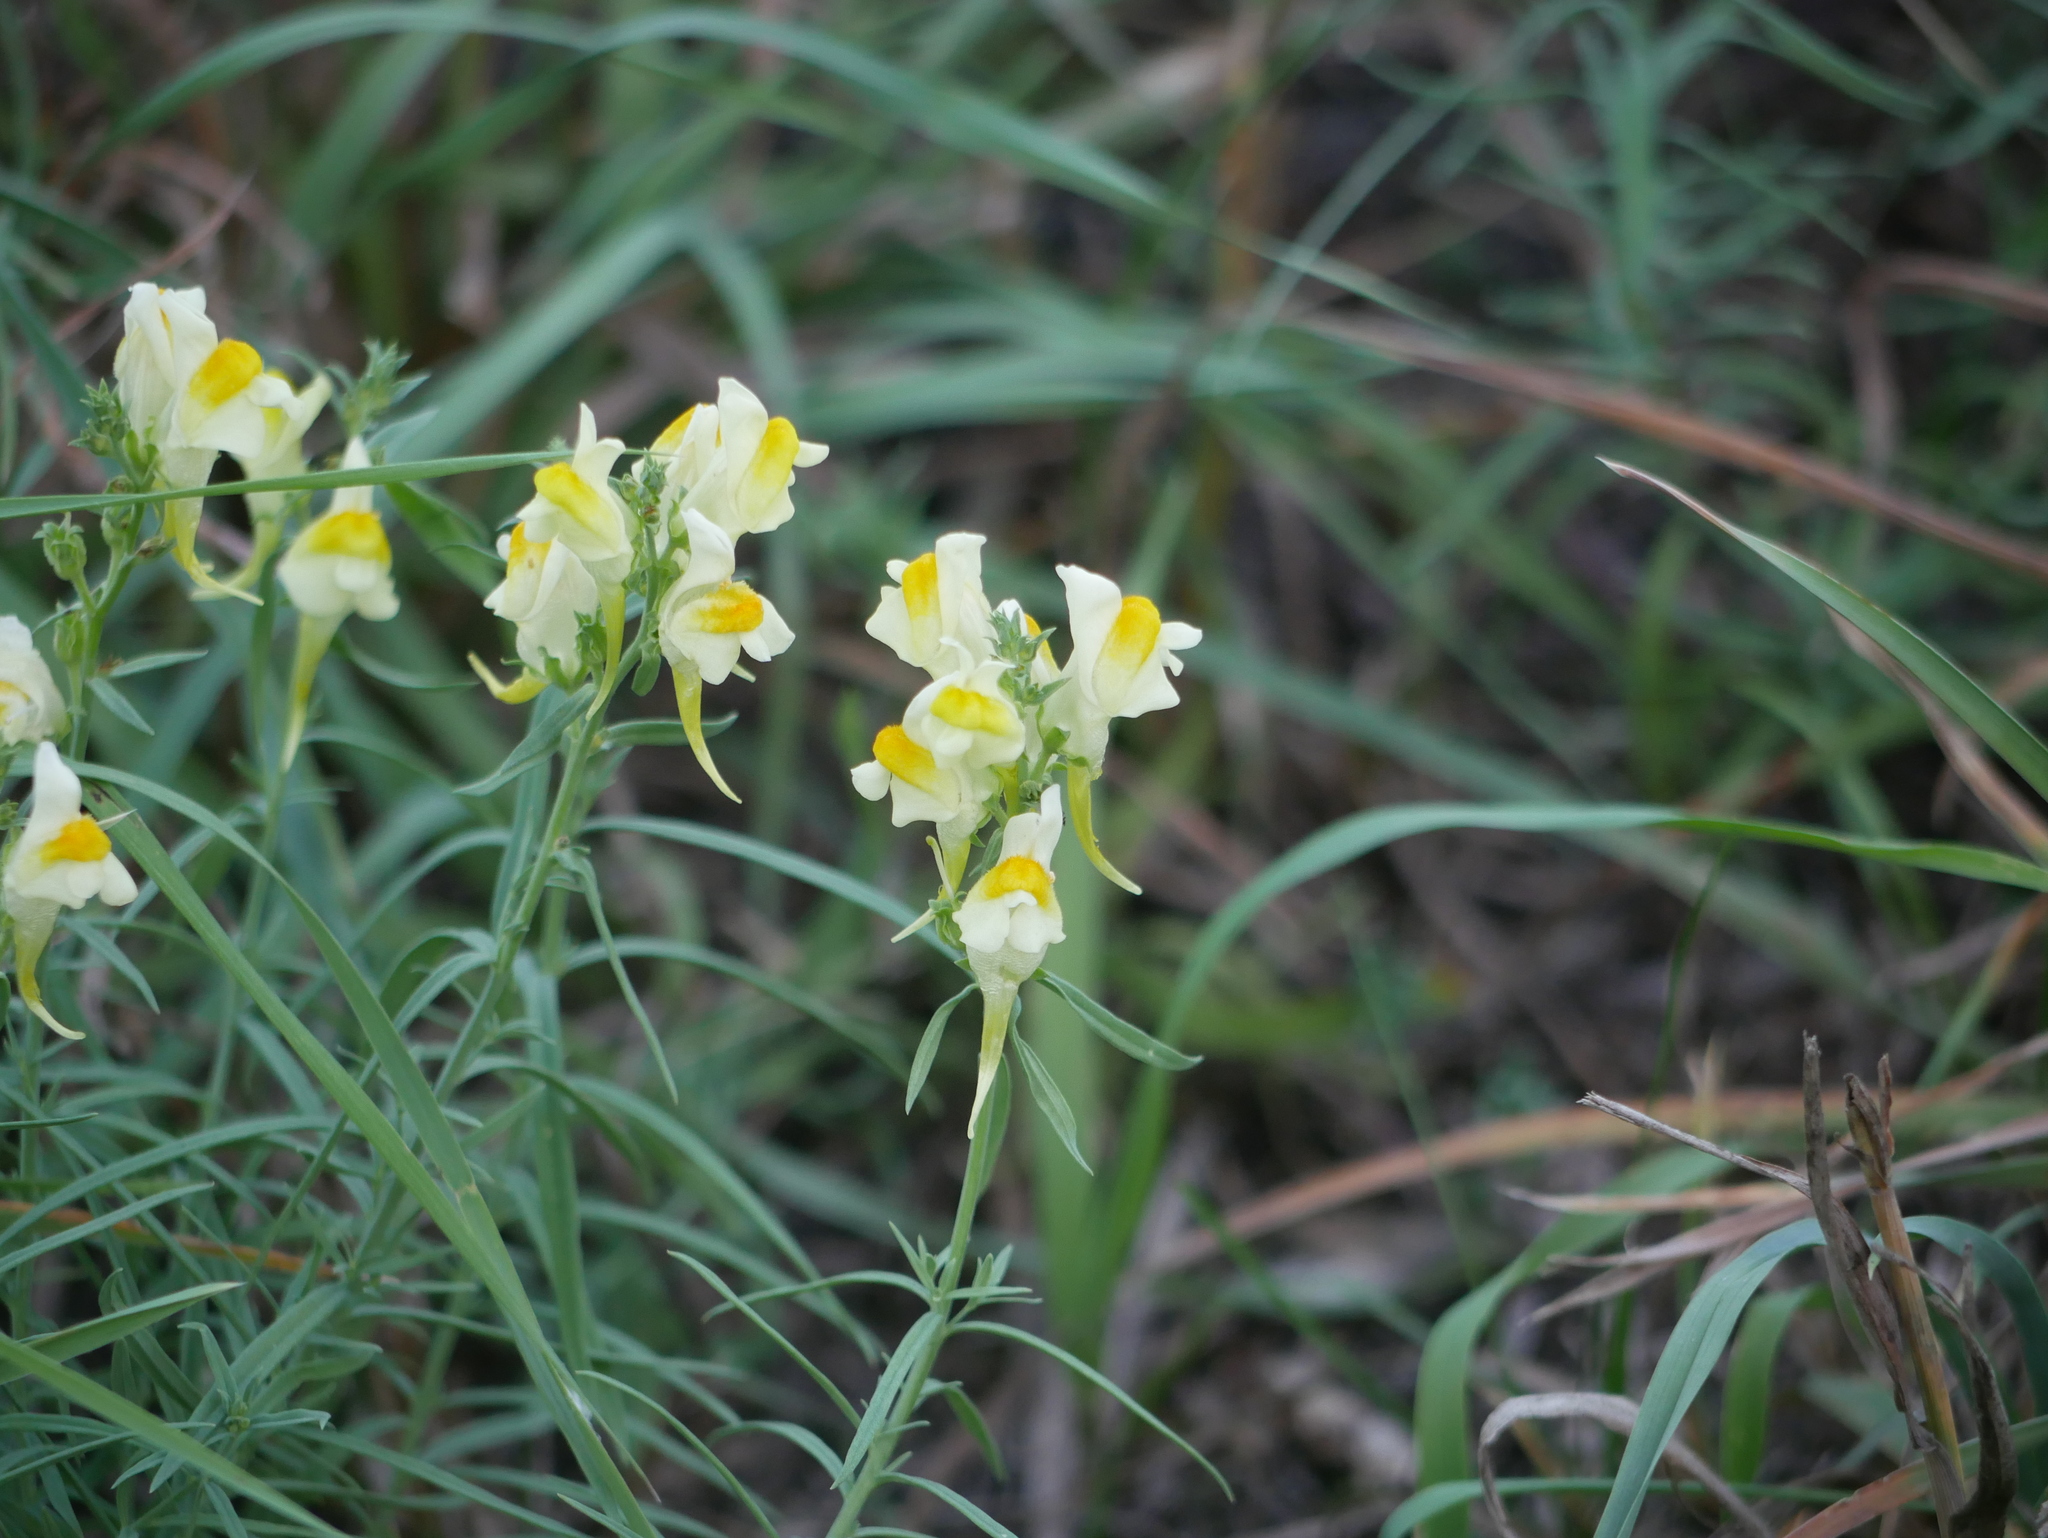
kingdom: Plantae
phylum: Tracheophyta
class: Magnoliopsida
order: Lamiales
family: Plantaginaceae
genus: Linaria
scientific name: Linaria vulgaris
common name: Butter and eggs
